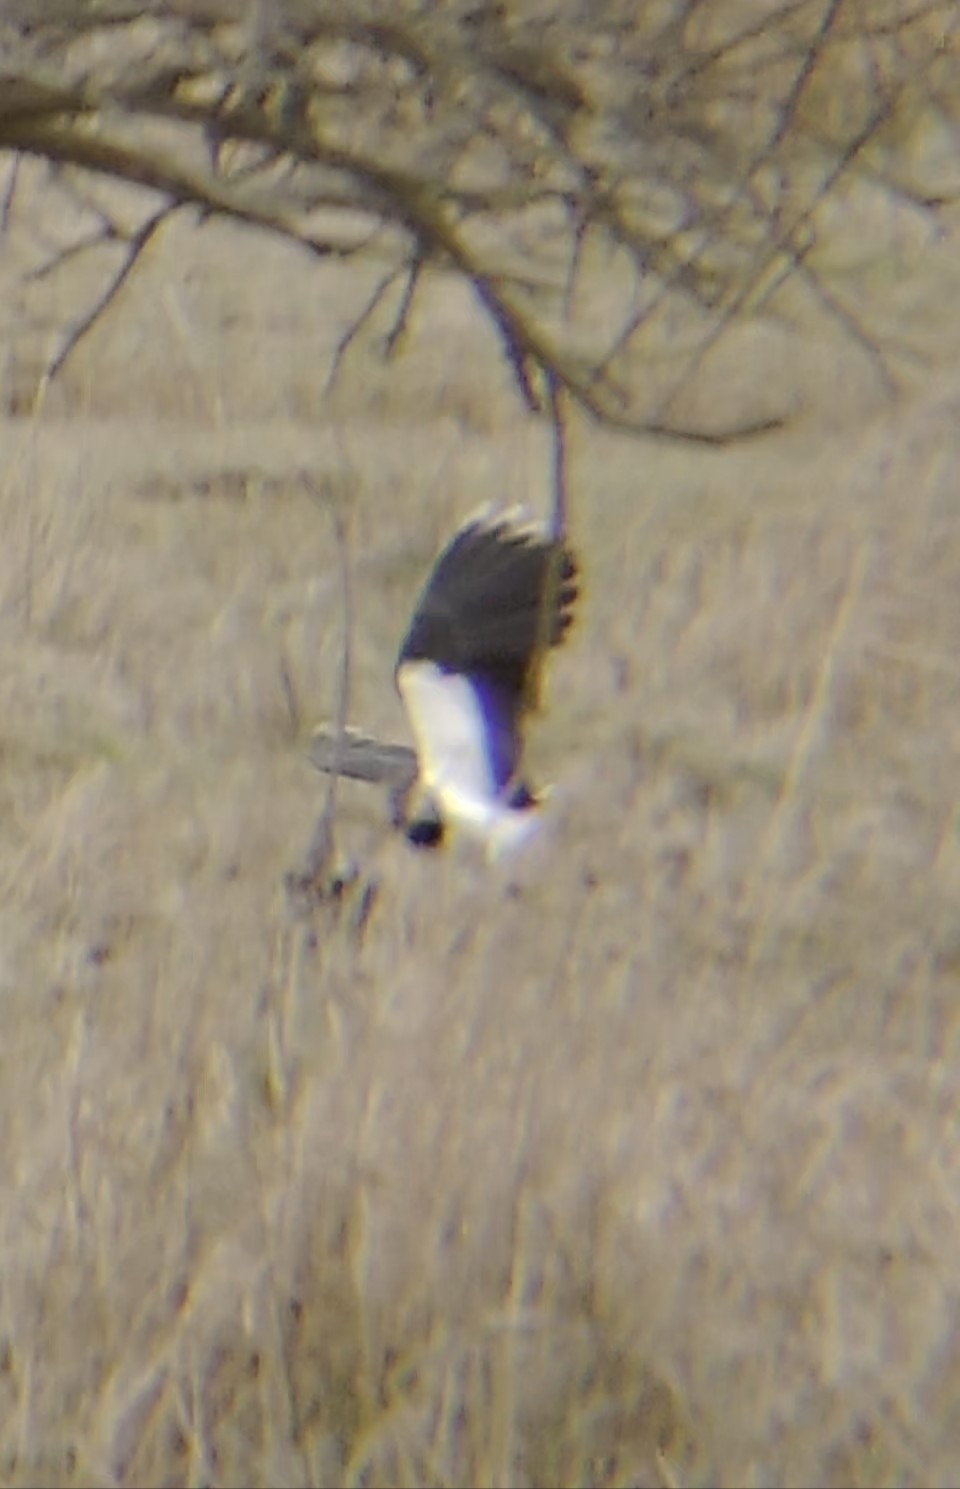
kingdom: Animalia
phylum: Chordata
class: Aves
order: Charadriiformes
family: Charadriidae
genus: Vanellus
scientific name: Vanellus vanellus
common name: Northern lapwing
